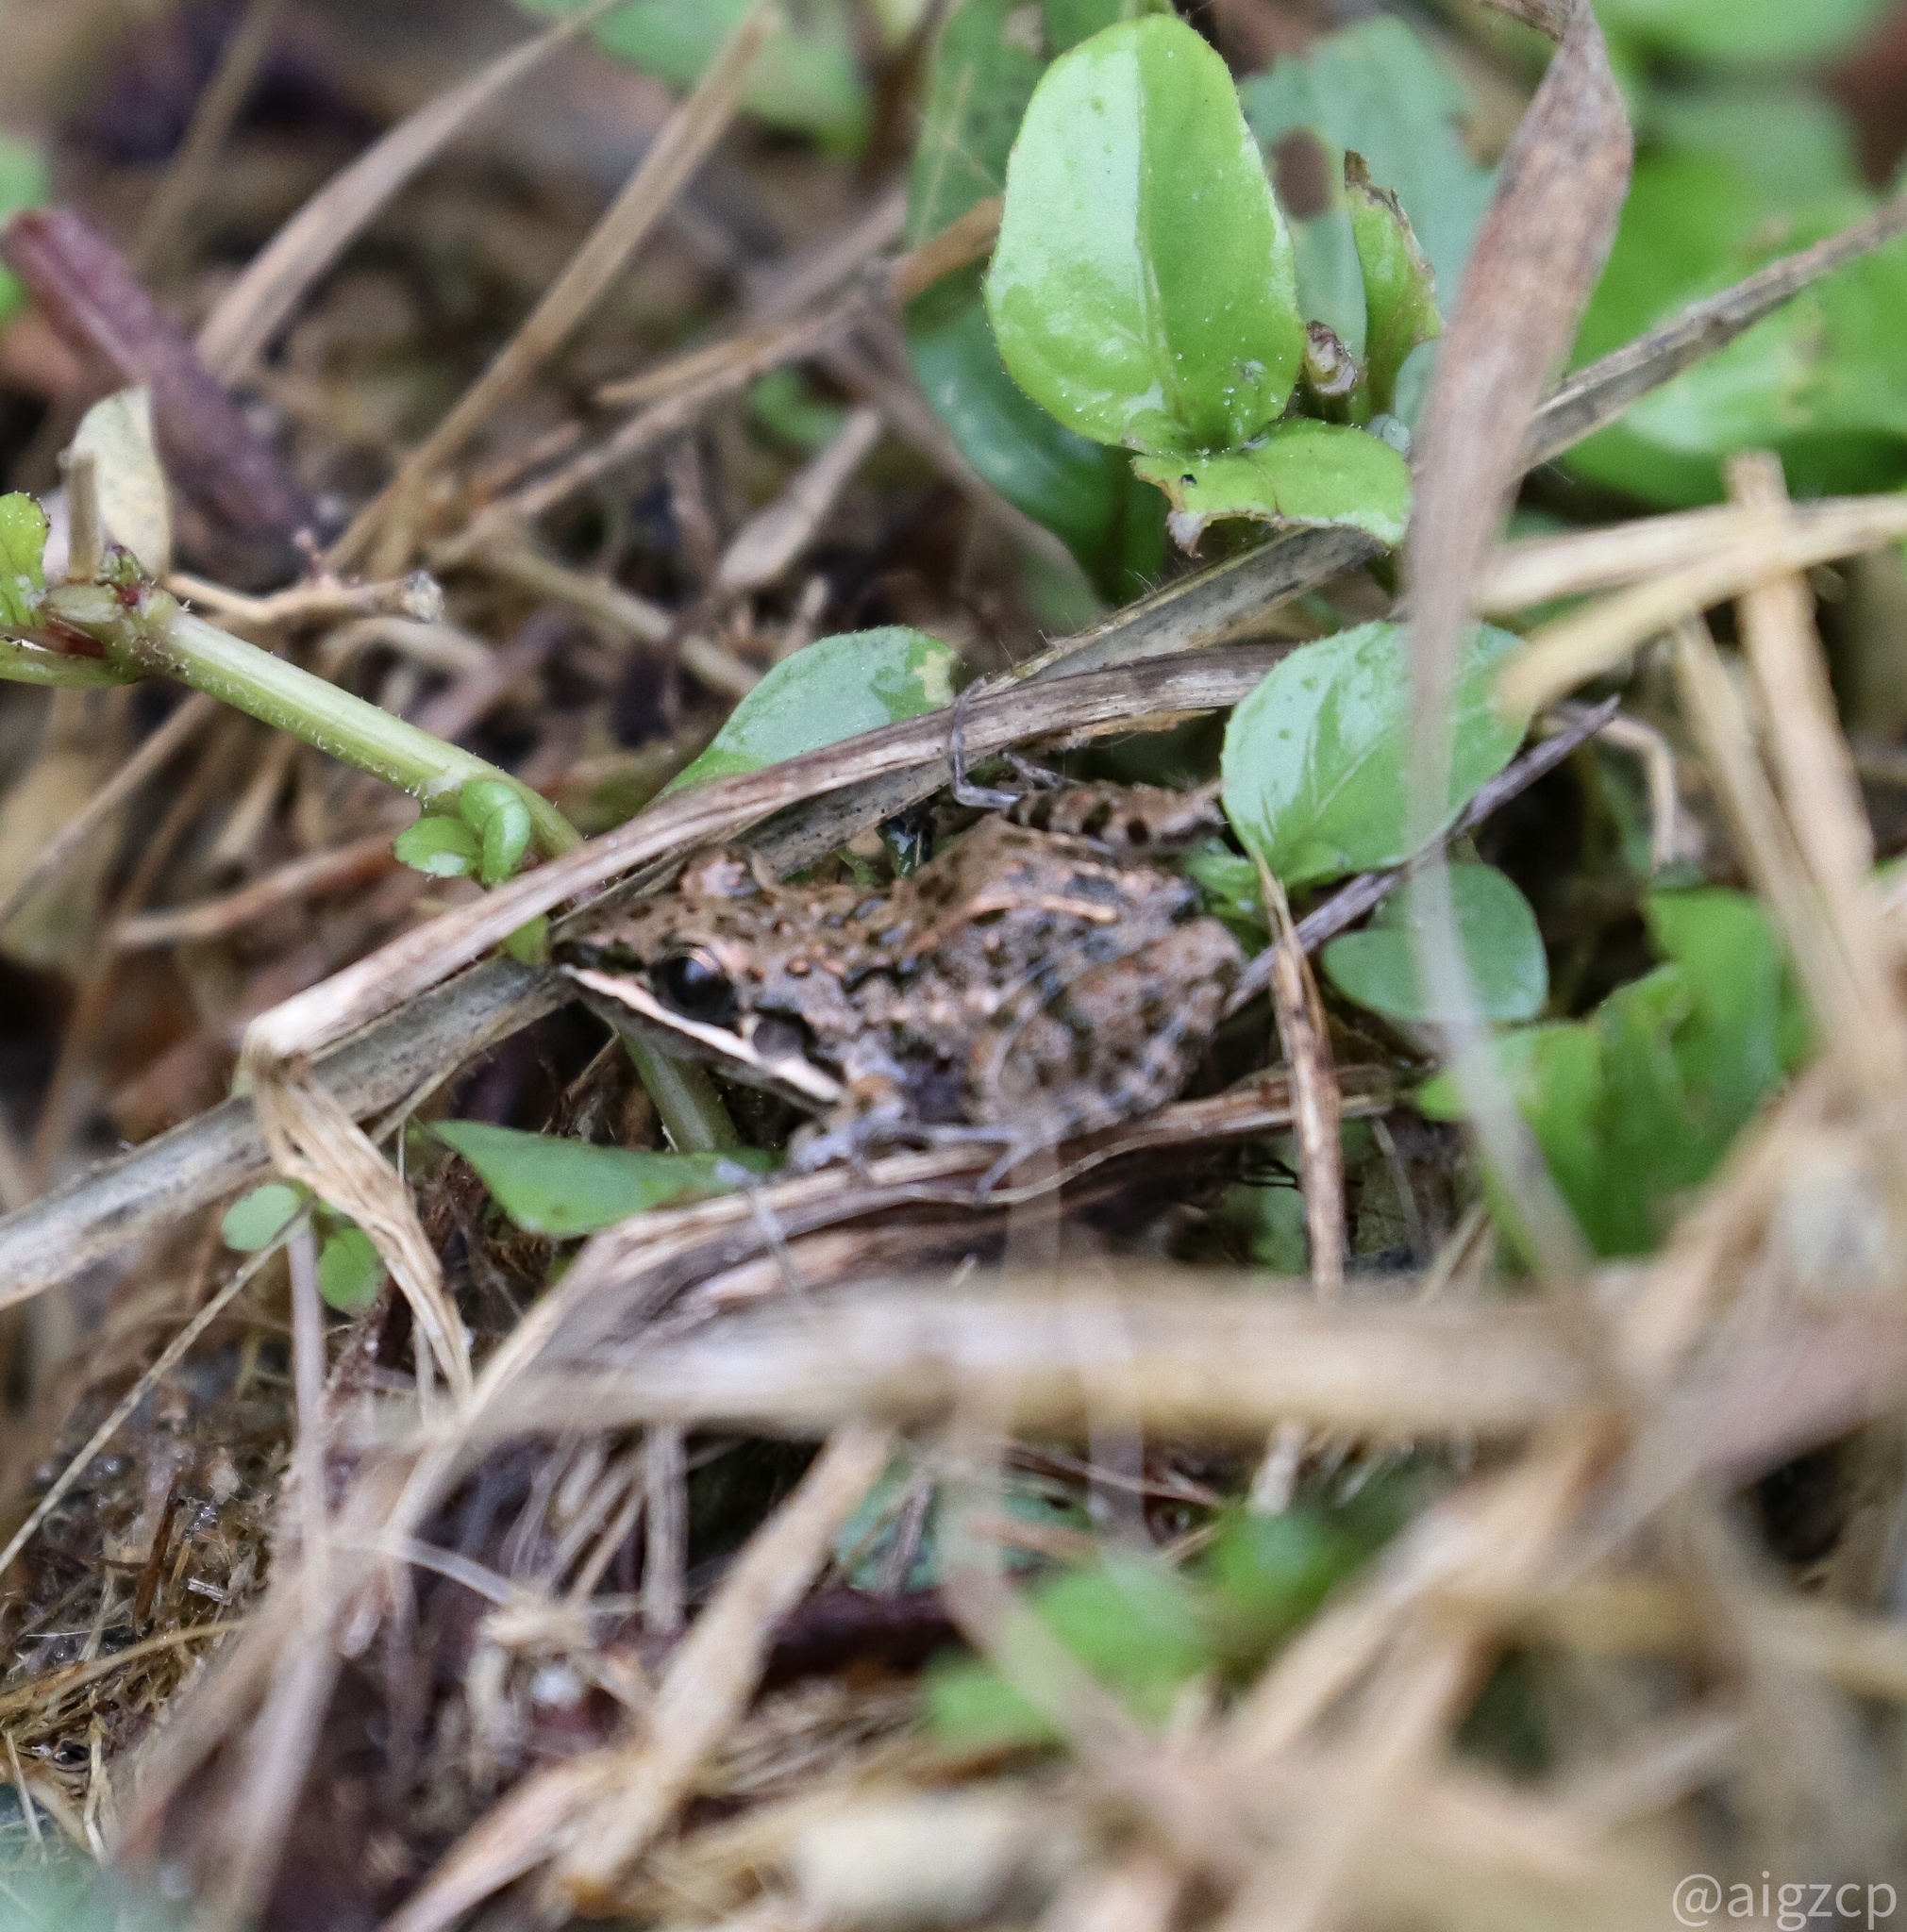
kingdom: Animalia
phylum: Chordata
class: Amphibia
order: Anura
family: Leptodactylidae
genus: Leptodactylus
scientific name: Leptodactylus fragilis
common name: Mexican white-lipped frog
